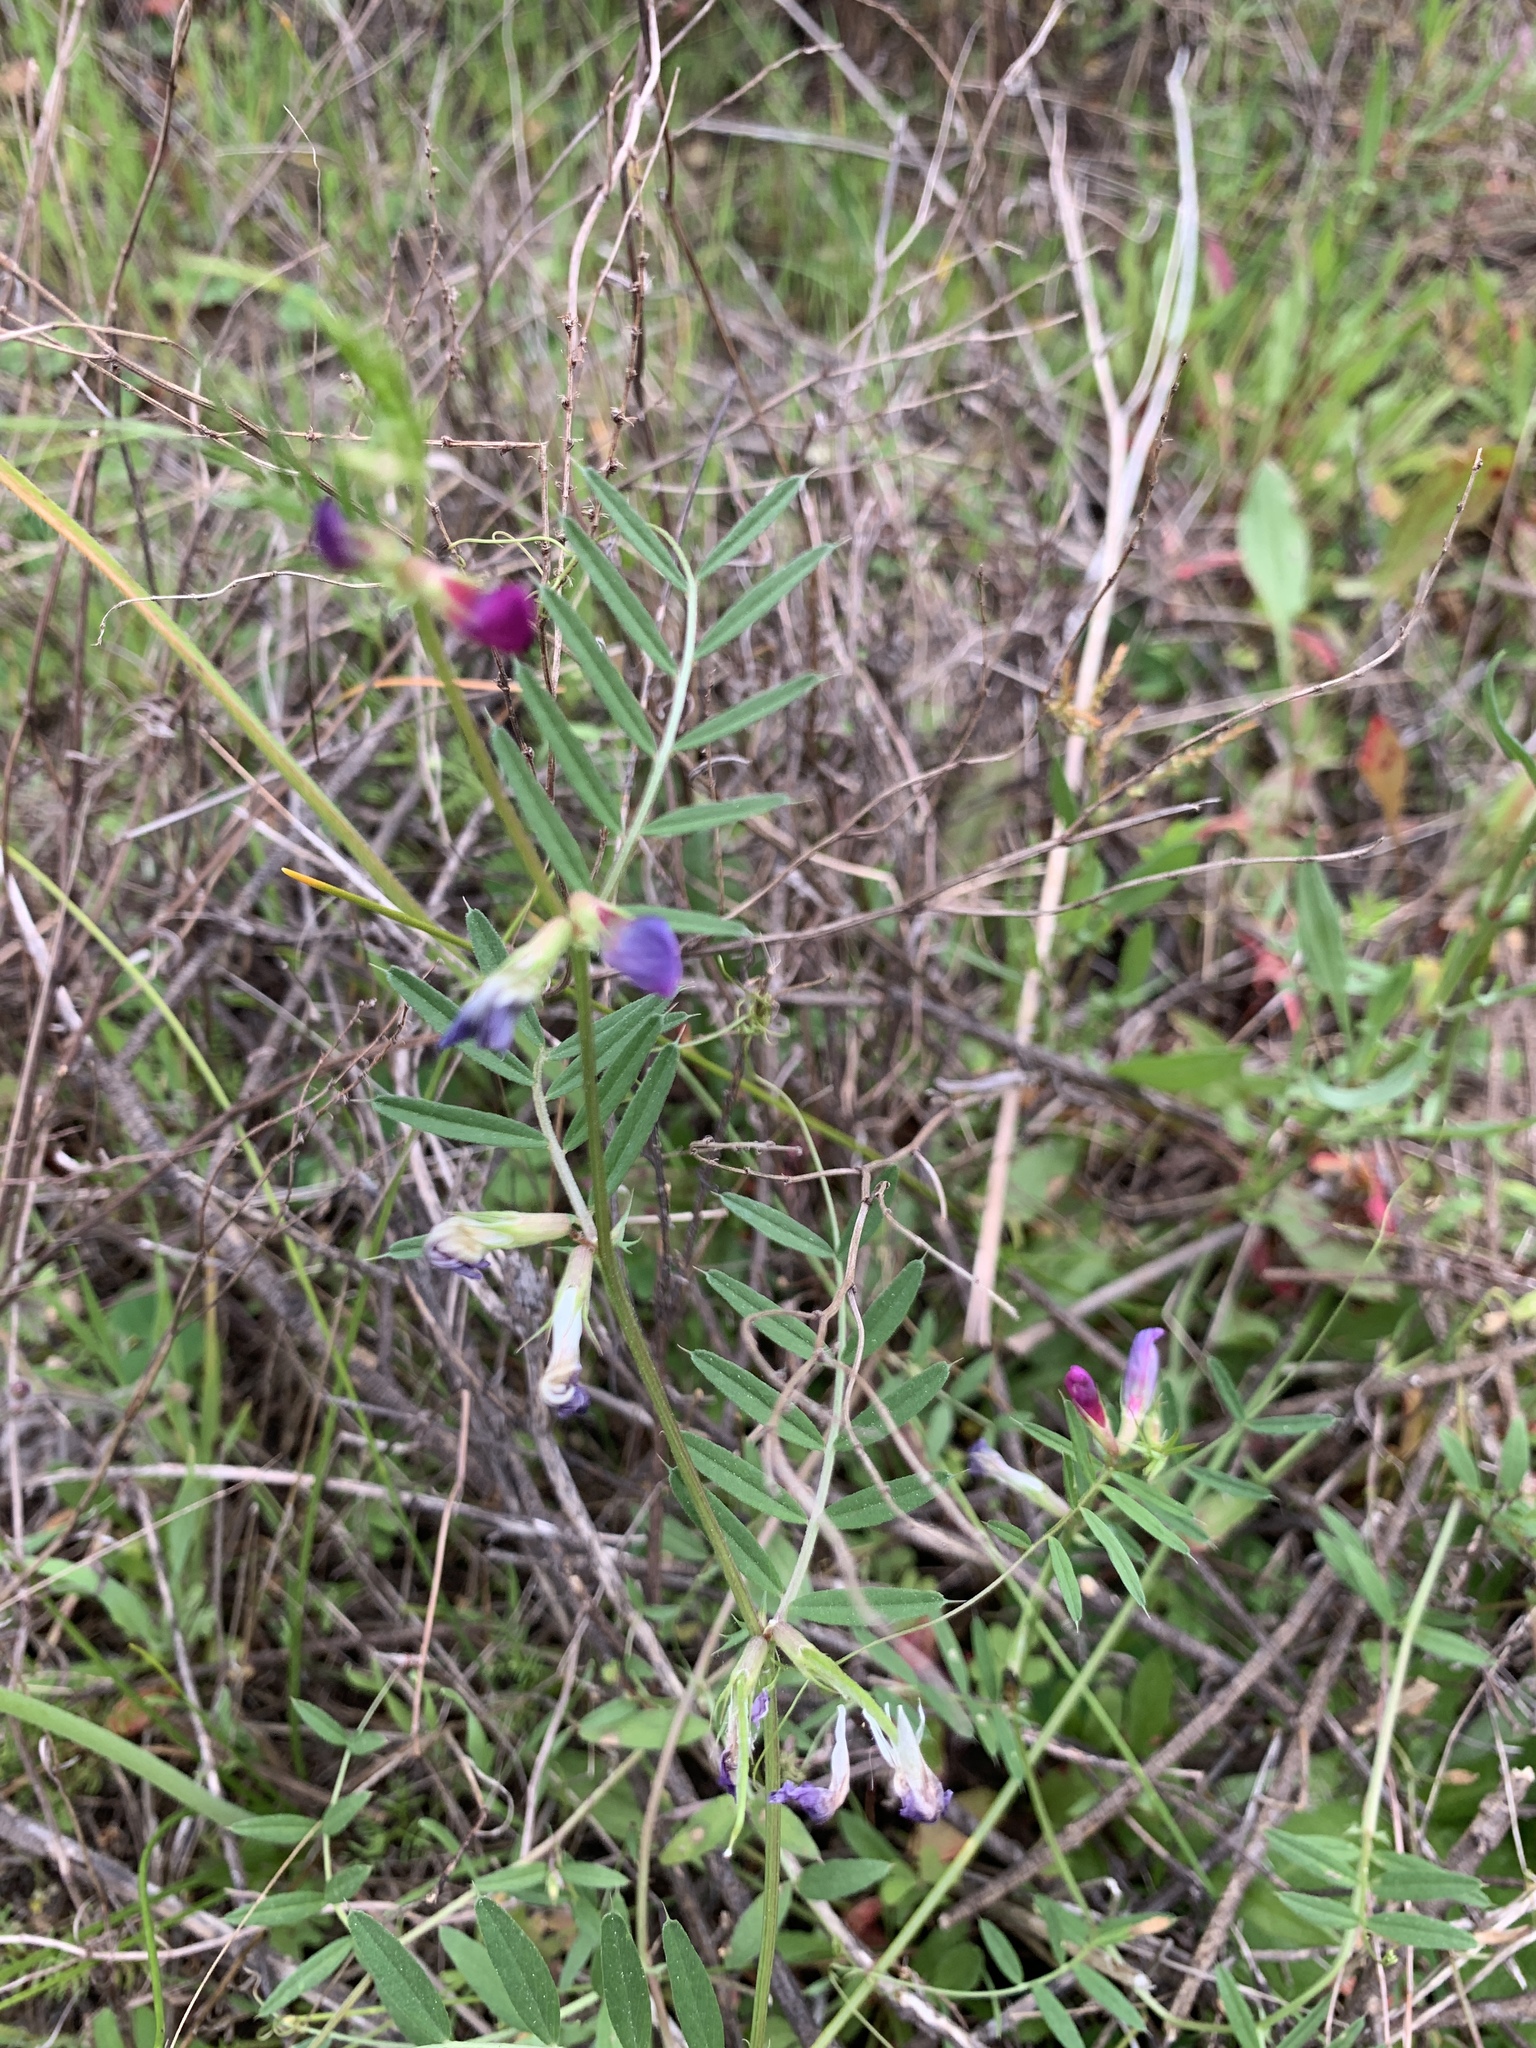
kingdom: Plantae
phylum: Tracheophyta
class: Magnoliopsida
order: Fabales
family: Fabaceae
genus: Vicia
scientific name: Vicia sativa
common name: Garden vetch
